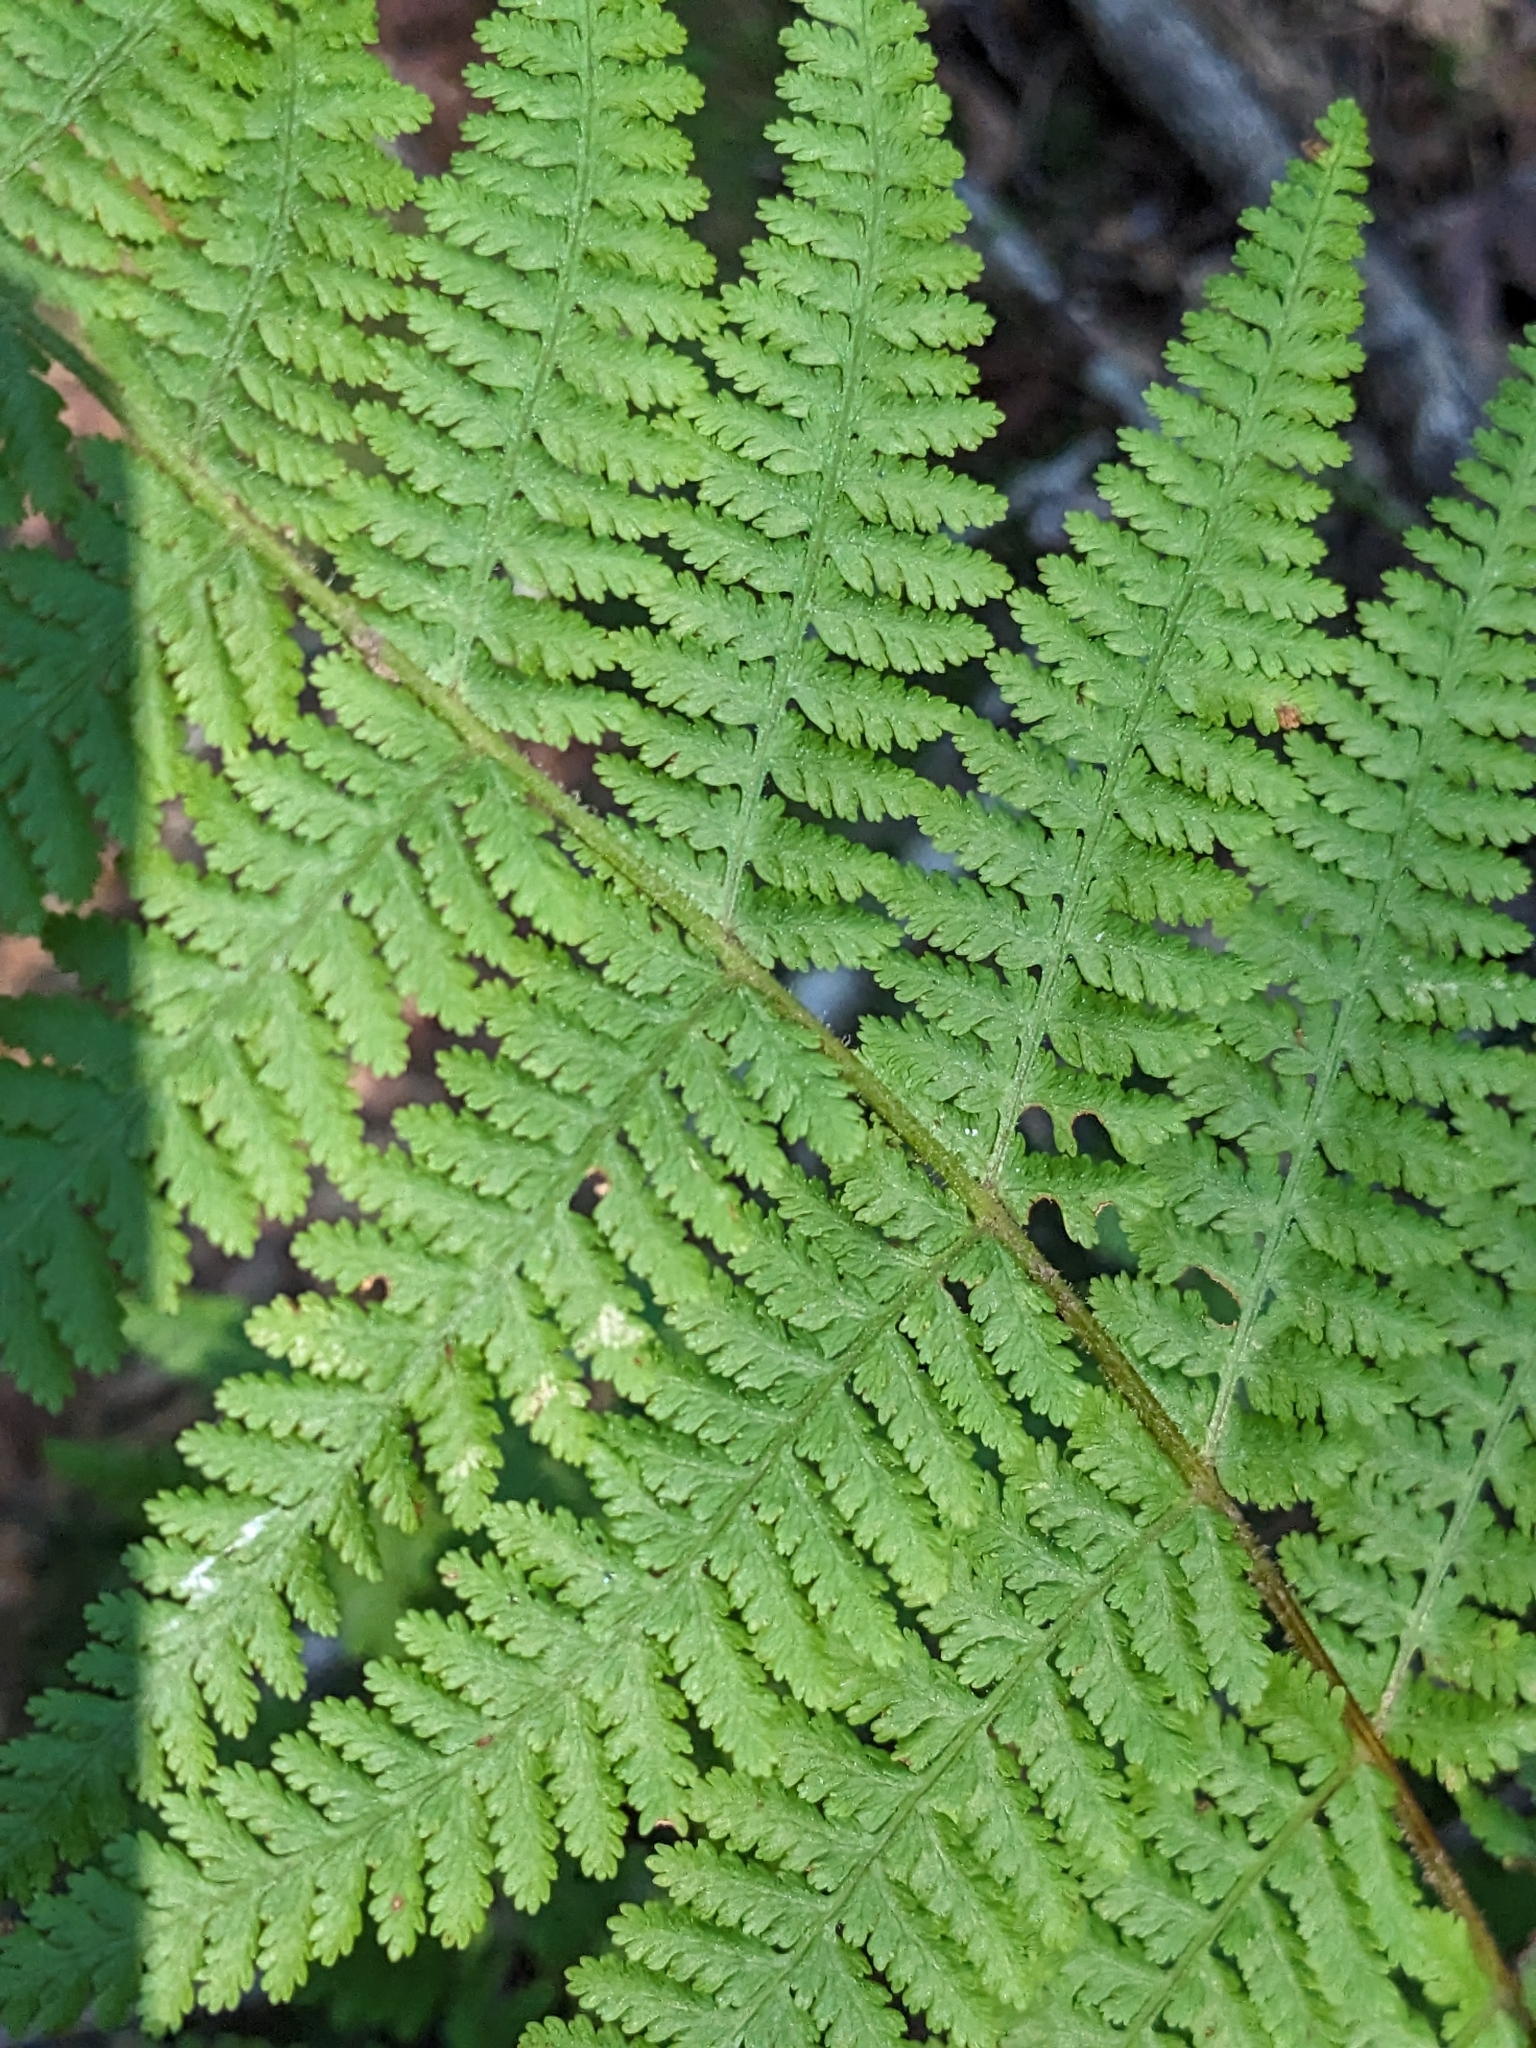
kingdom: Plantae
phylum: Tracheophyta
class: Polypodiopsida
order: Polypodiales
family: Dennstaedtiaceae
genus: Sitobolium
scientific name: Sitobolium punctilobum
